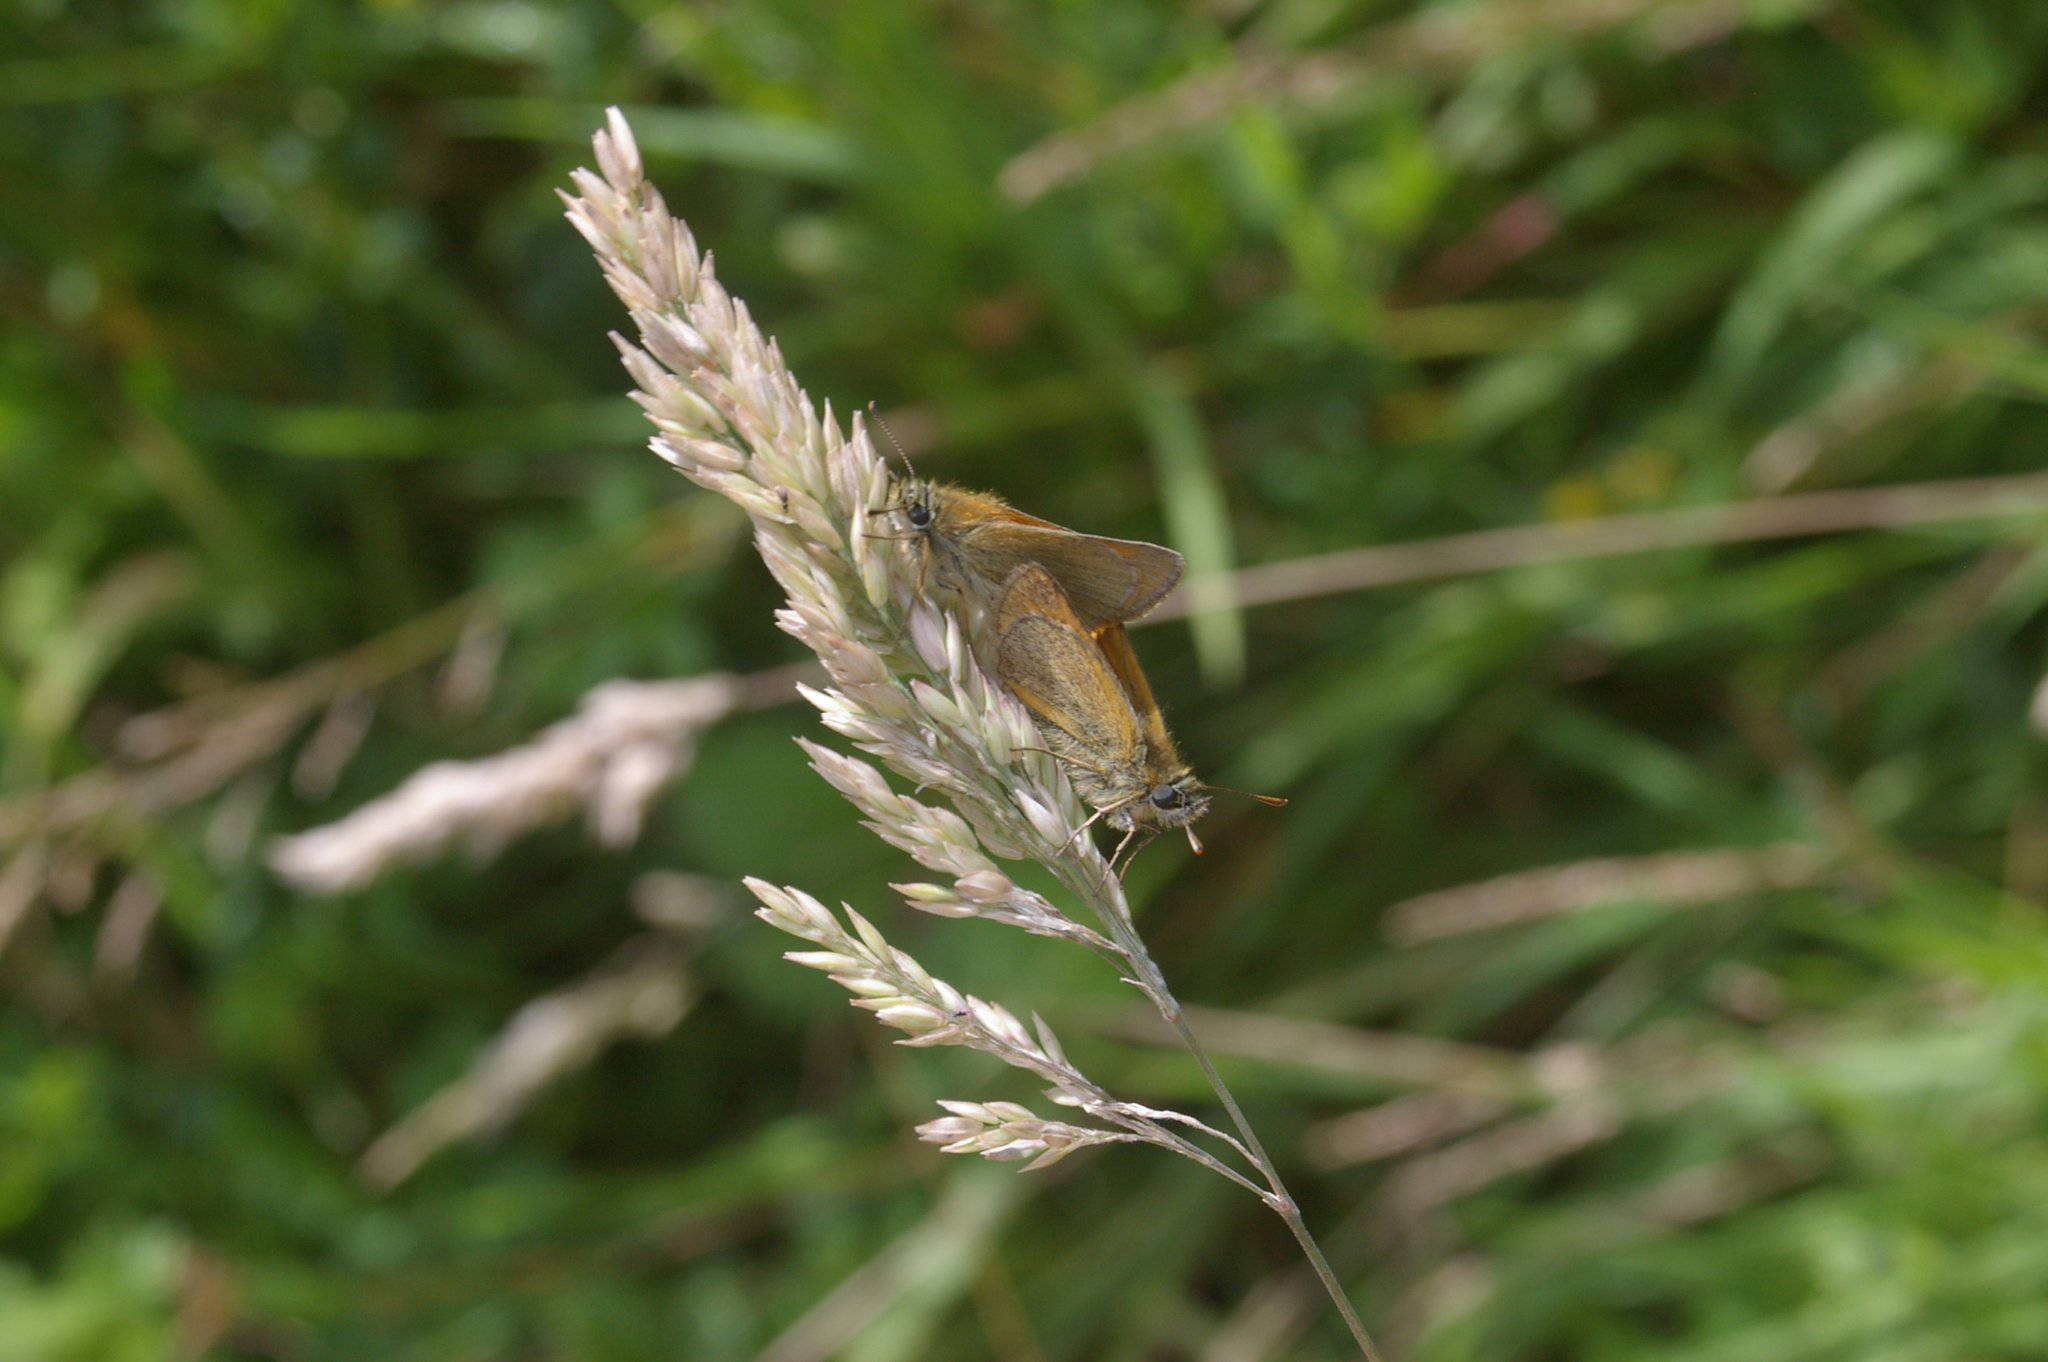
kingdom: Animalia
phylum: Arthropoda
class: Insecta
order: Lepidoptera
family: Hesperiidae
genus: Thymelicus
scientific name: Thymelicus sylvestris
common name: Small skipper
